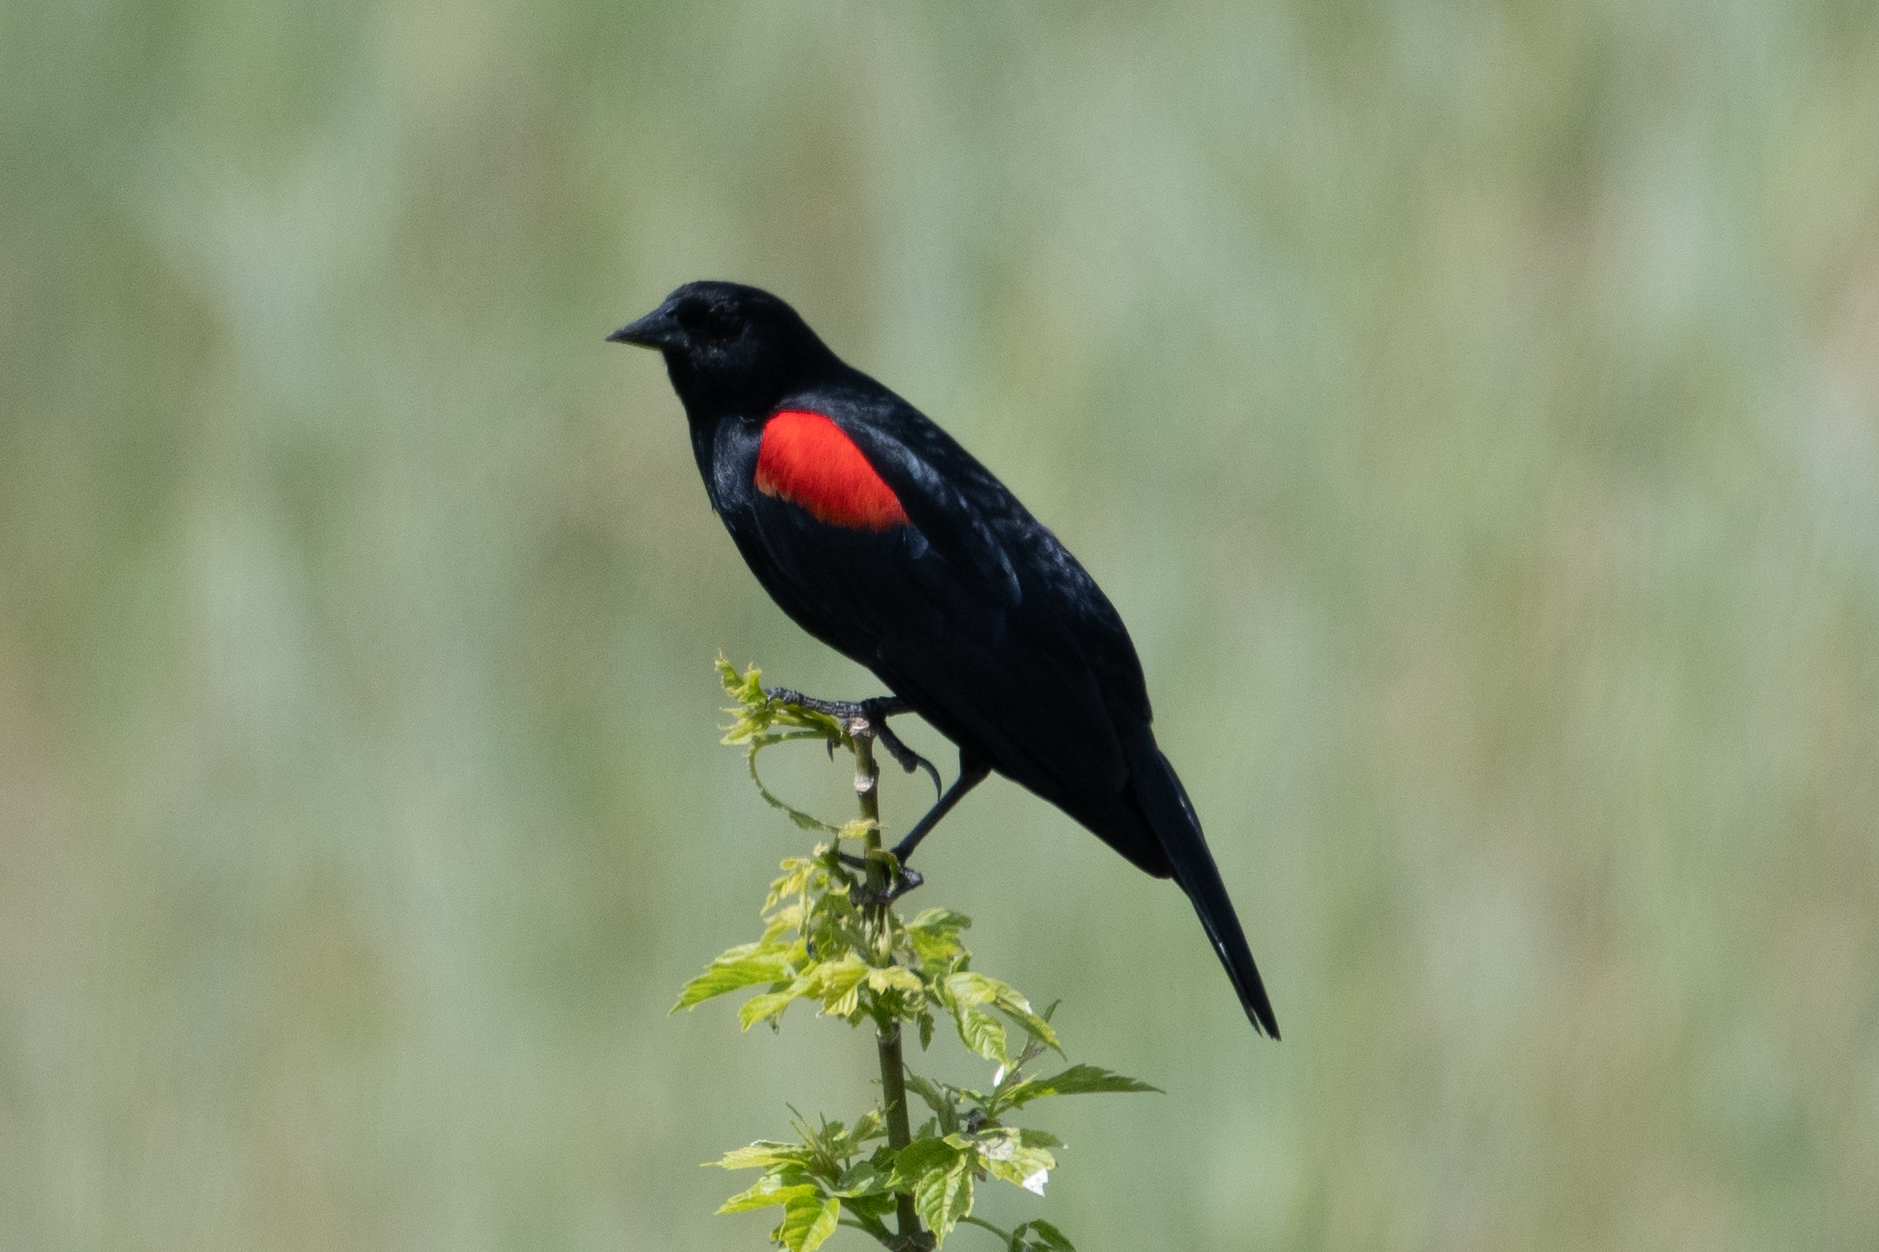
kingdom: Animalia
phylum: Chordata
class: Aves
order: Passeriformes
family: Icteridae
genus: Agelaius
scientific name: Agelaius phoeniceus
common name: Red-winged blackbird
